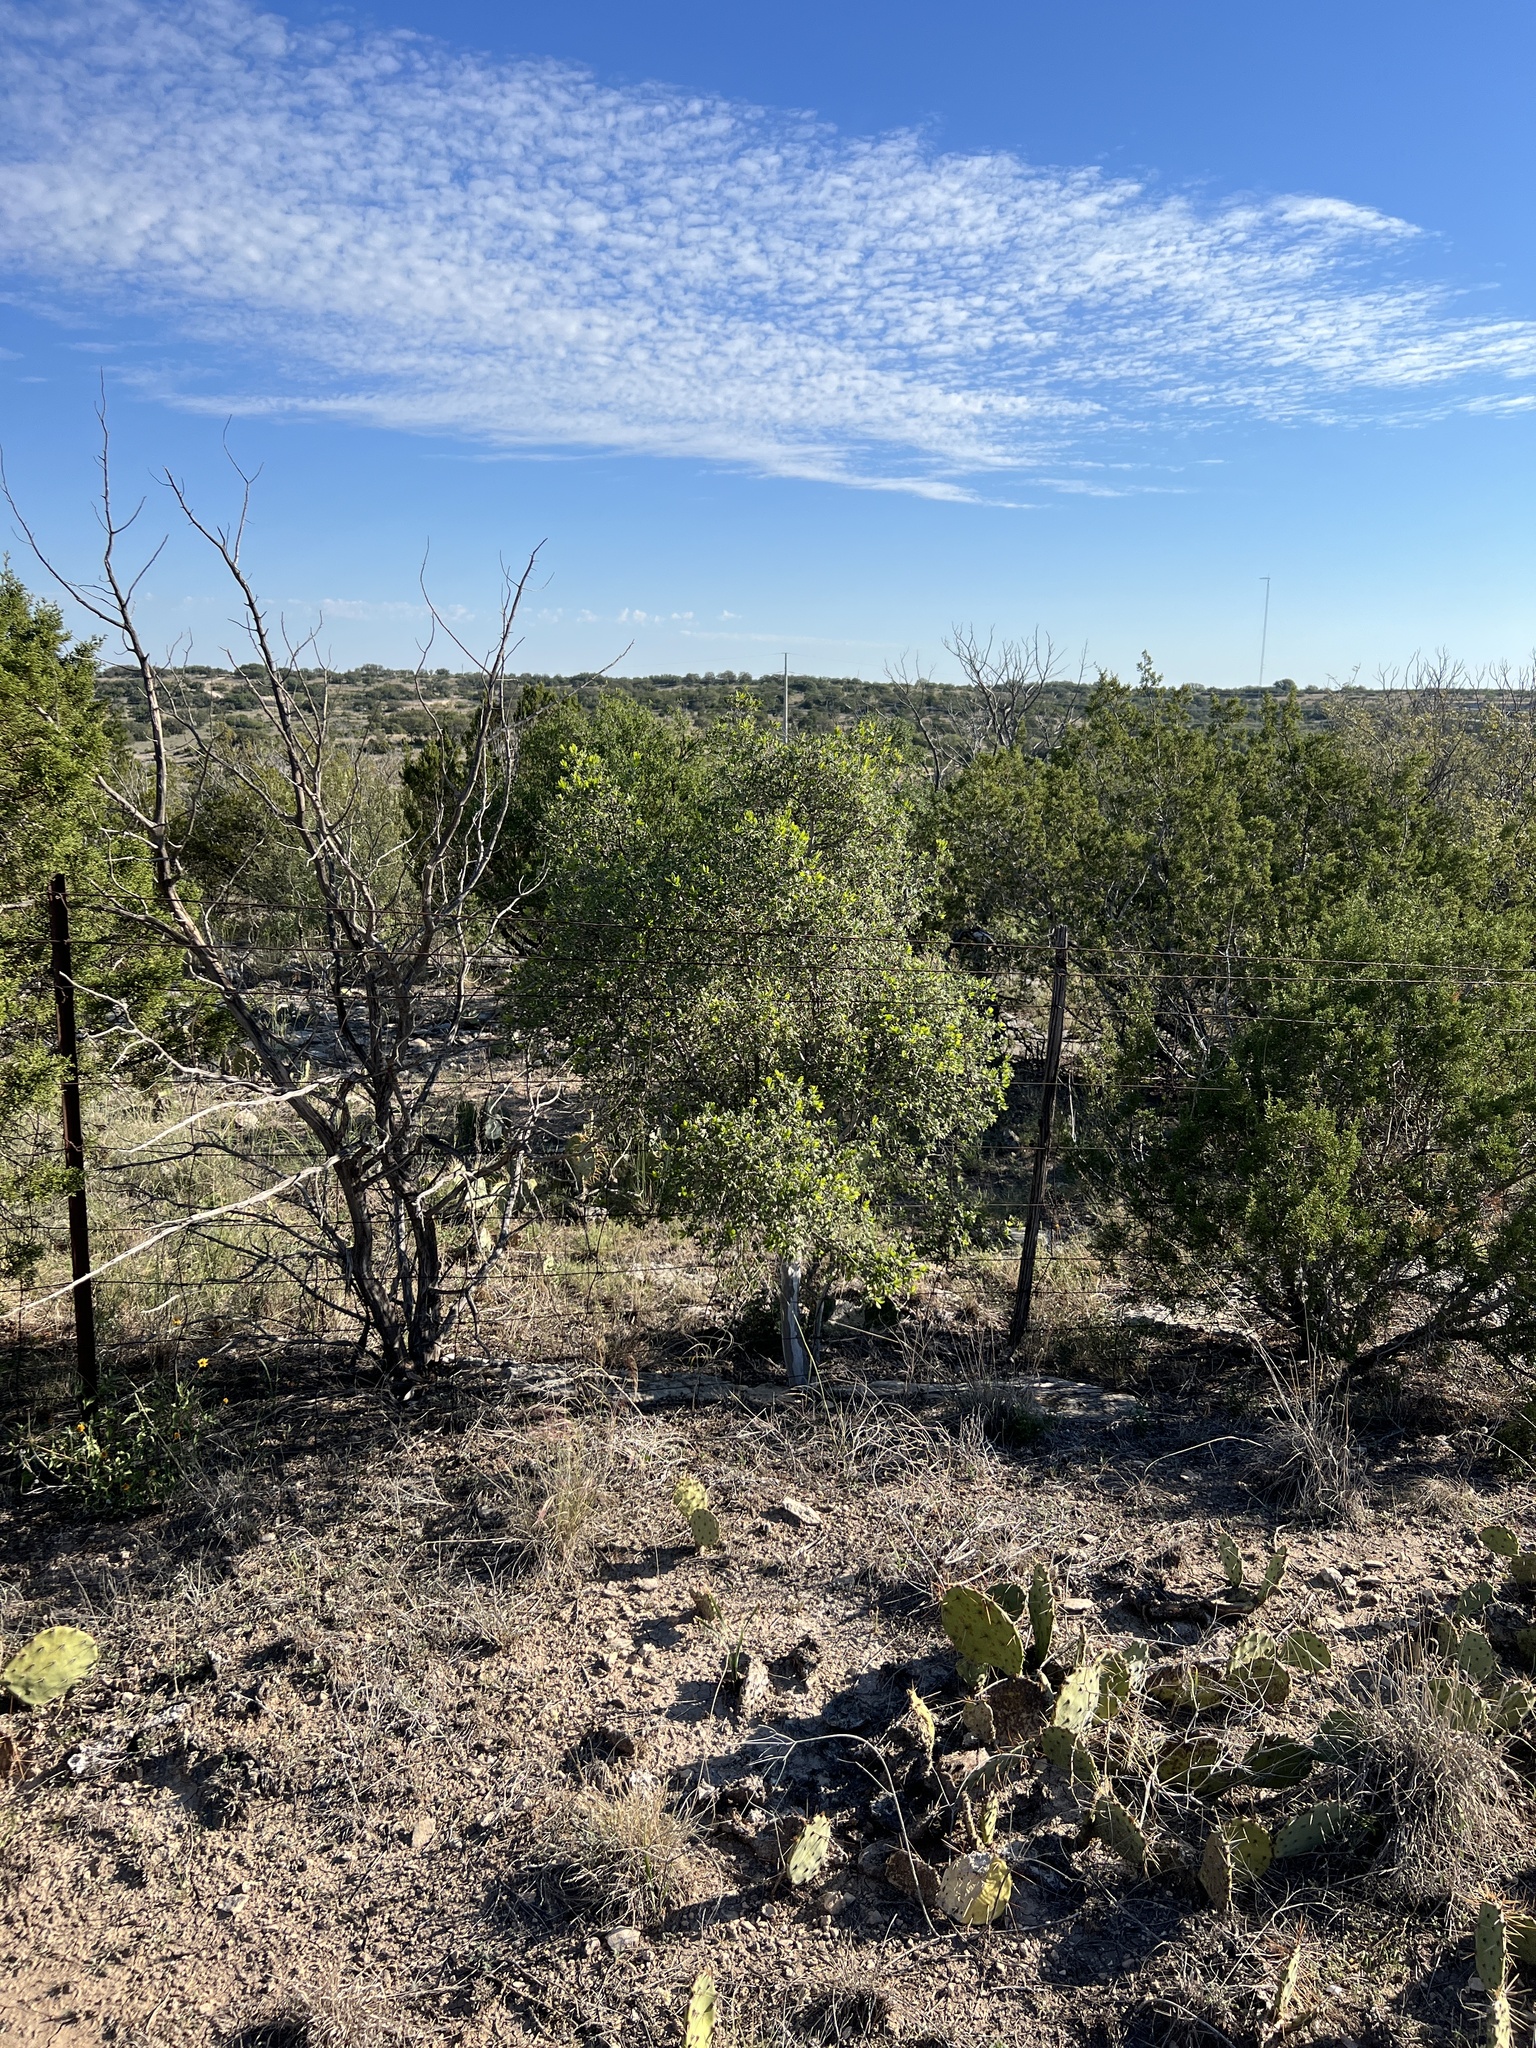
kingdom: Plantae
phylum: Tracheophyta
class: Magnoliopsida
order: Ericales
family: Ebenaceae
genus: Diospyros
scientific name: Diospyros texana
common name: Texas persimmon
